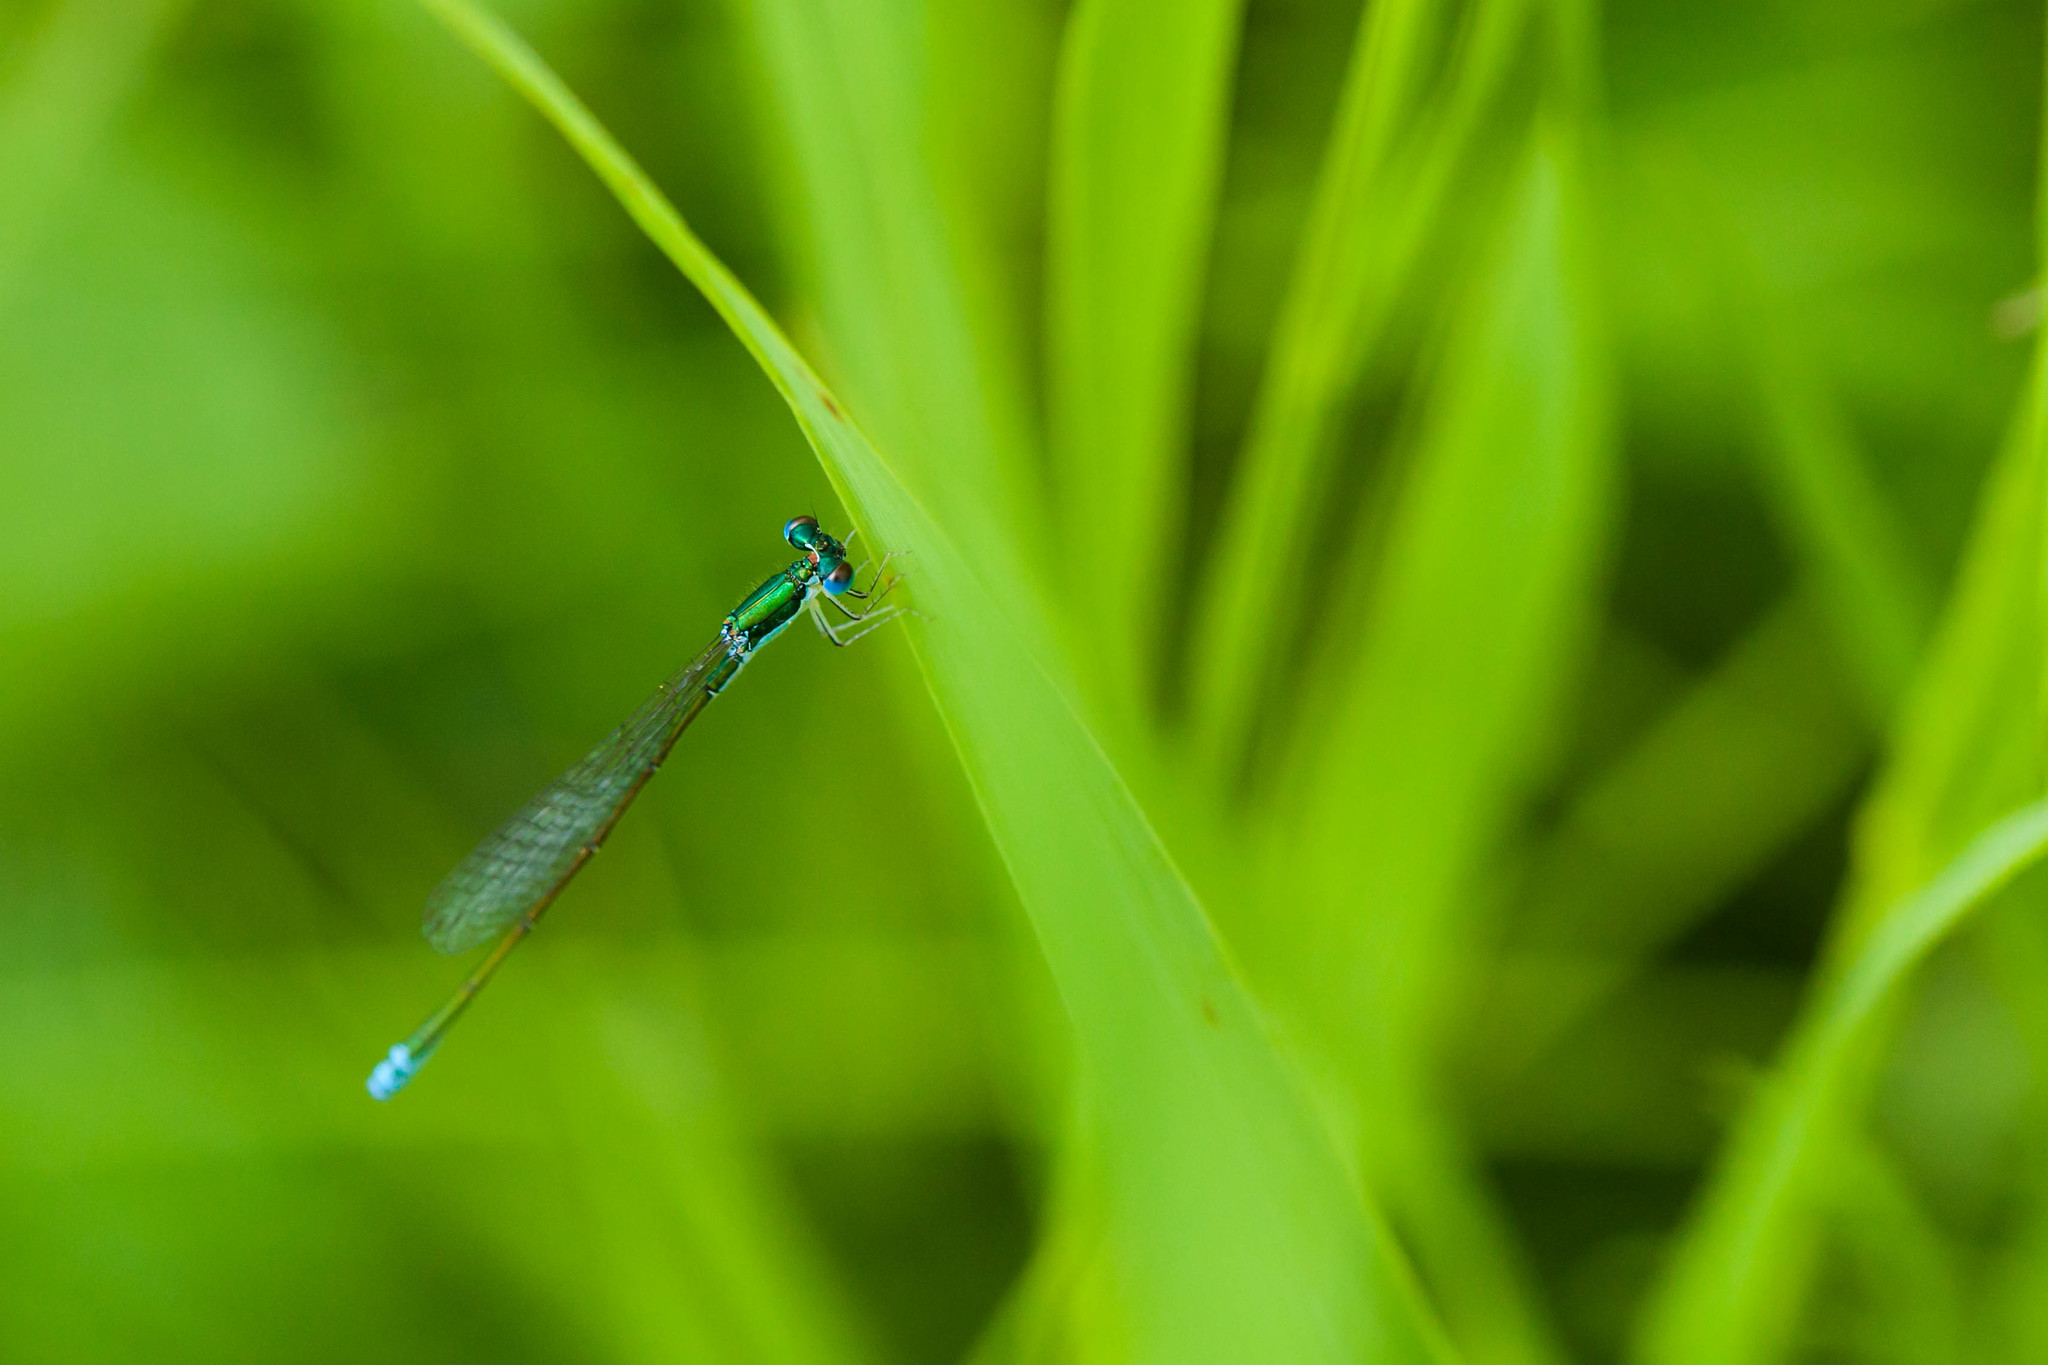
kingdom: Animalia
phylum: Arthropoda
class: Insecta
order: Odonata
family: Coenagrionidae
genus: Nehalennia
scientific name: Nehalennia irene
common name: Sedge sprite
